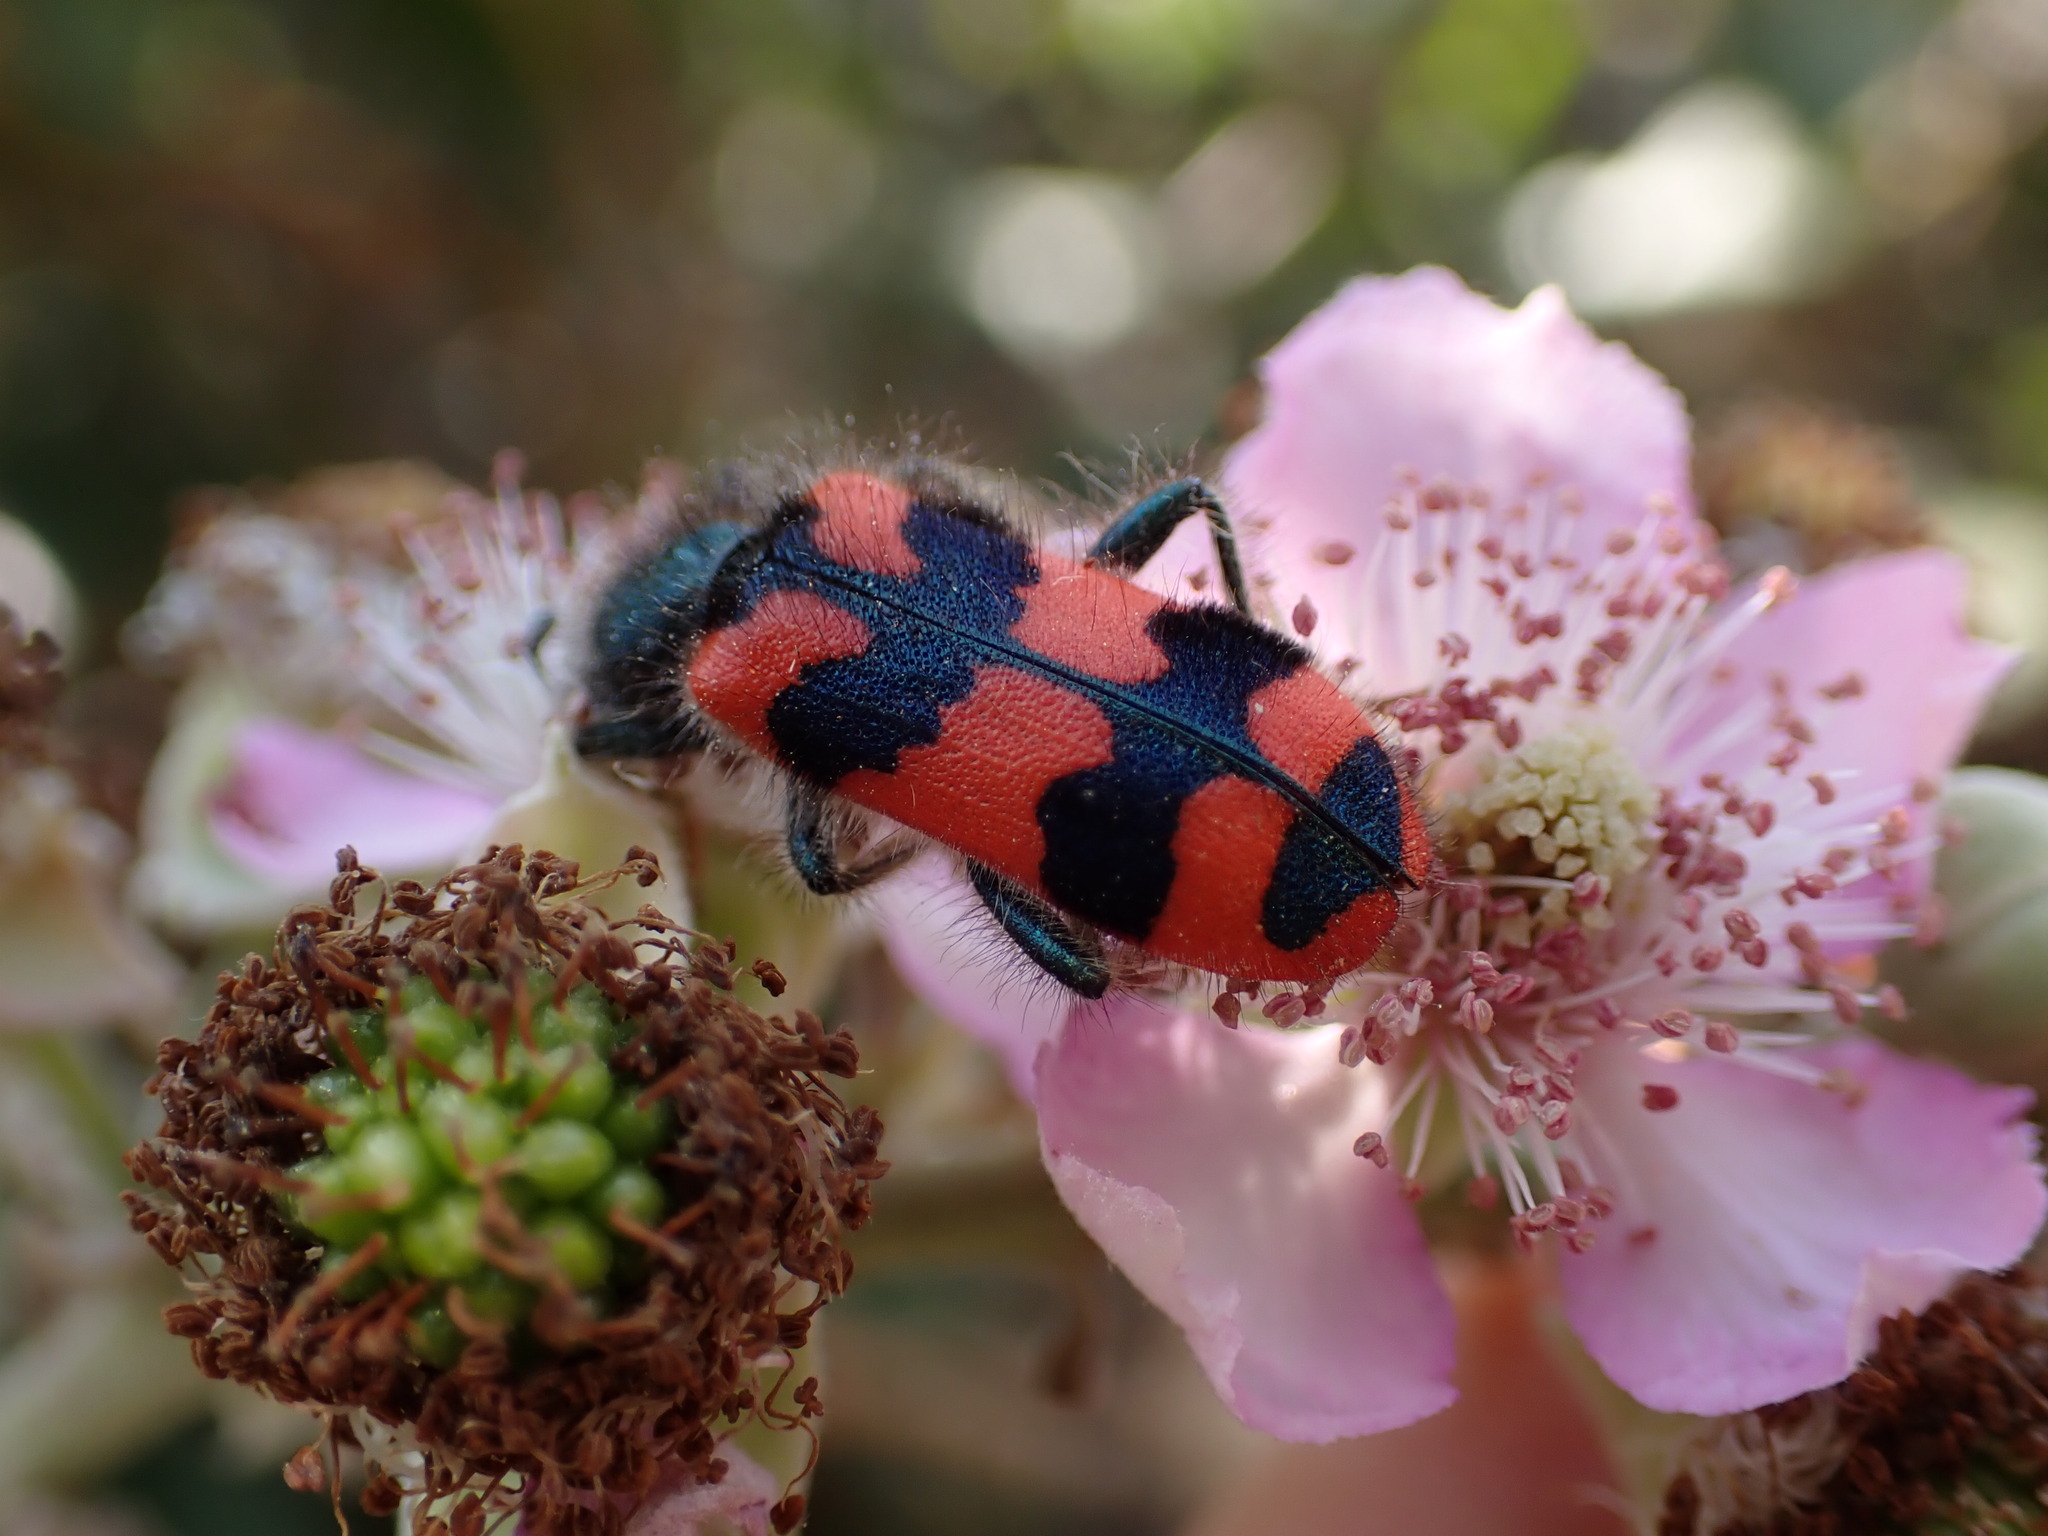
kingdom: Animalia
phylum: Arthropoda
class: Insecta
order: Coleoptera
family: Cleridae
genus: Trichodes
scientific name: Trichodes alvearius
